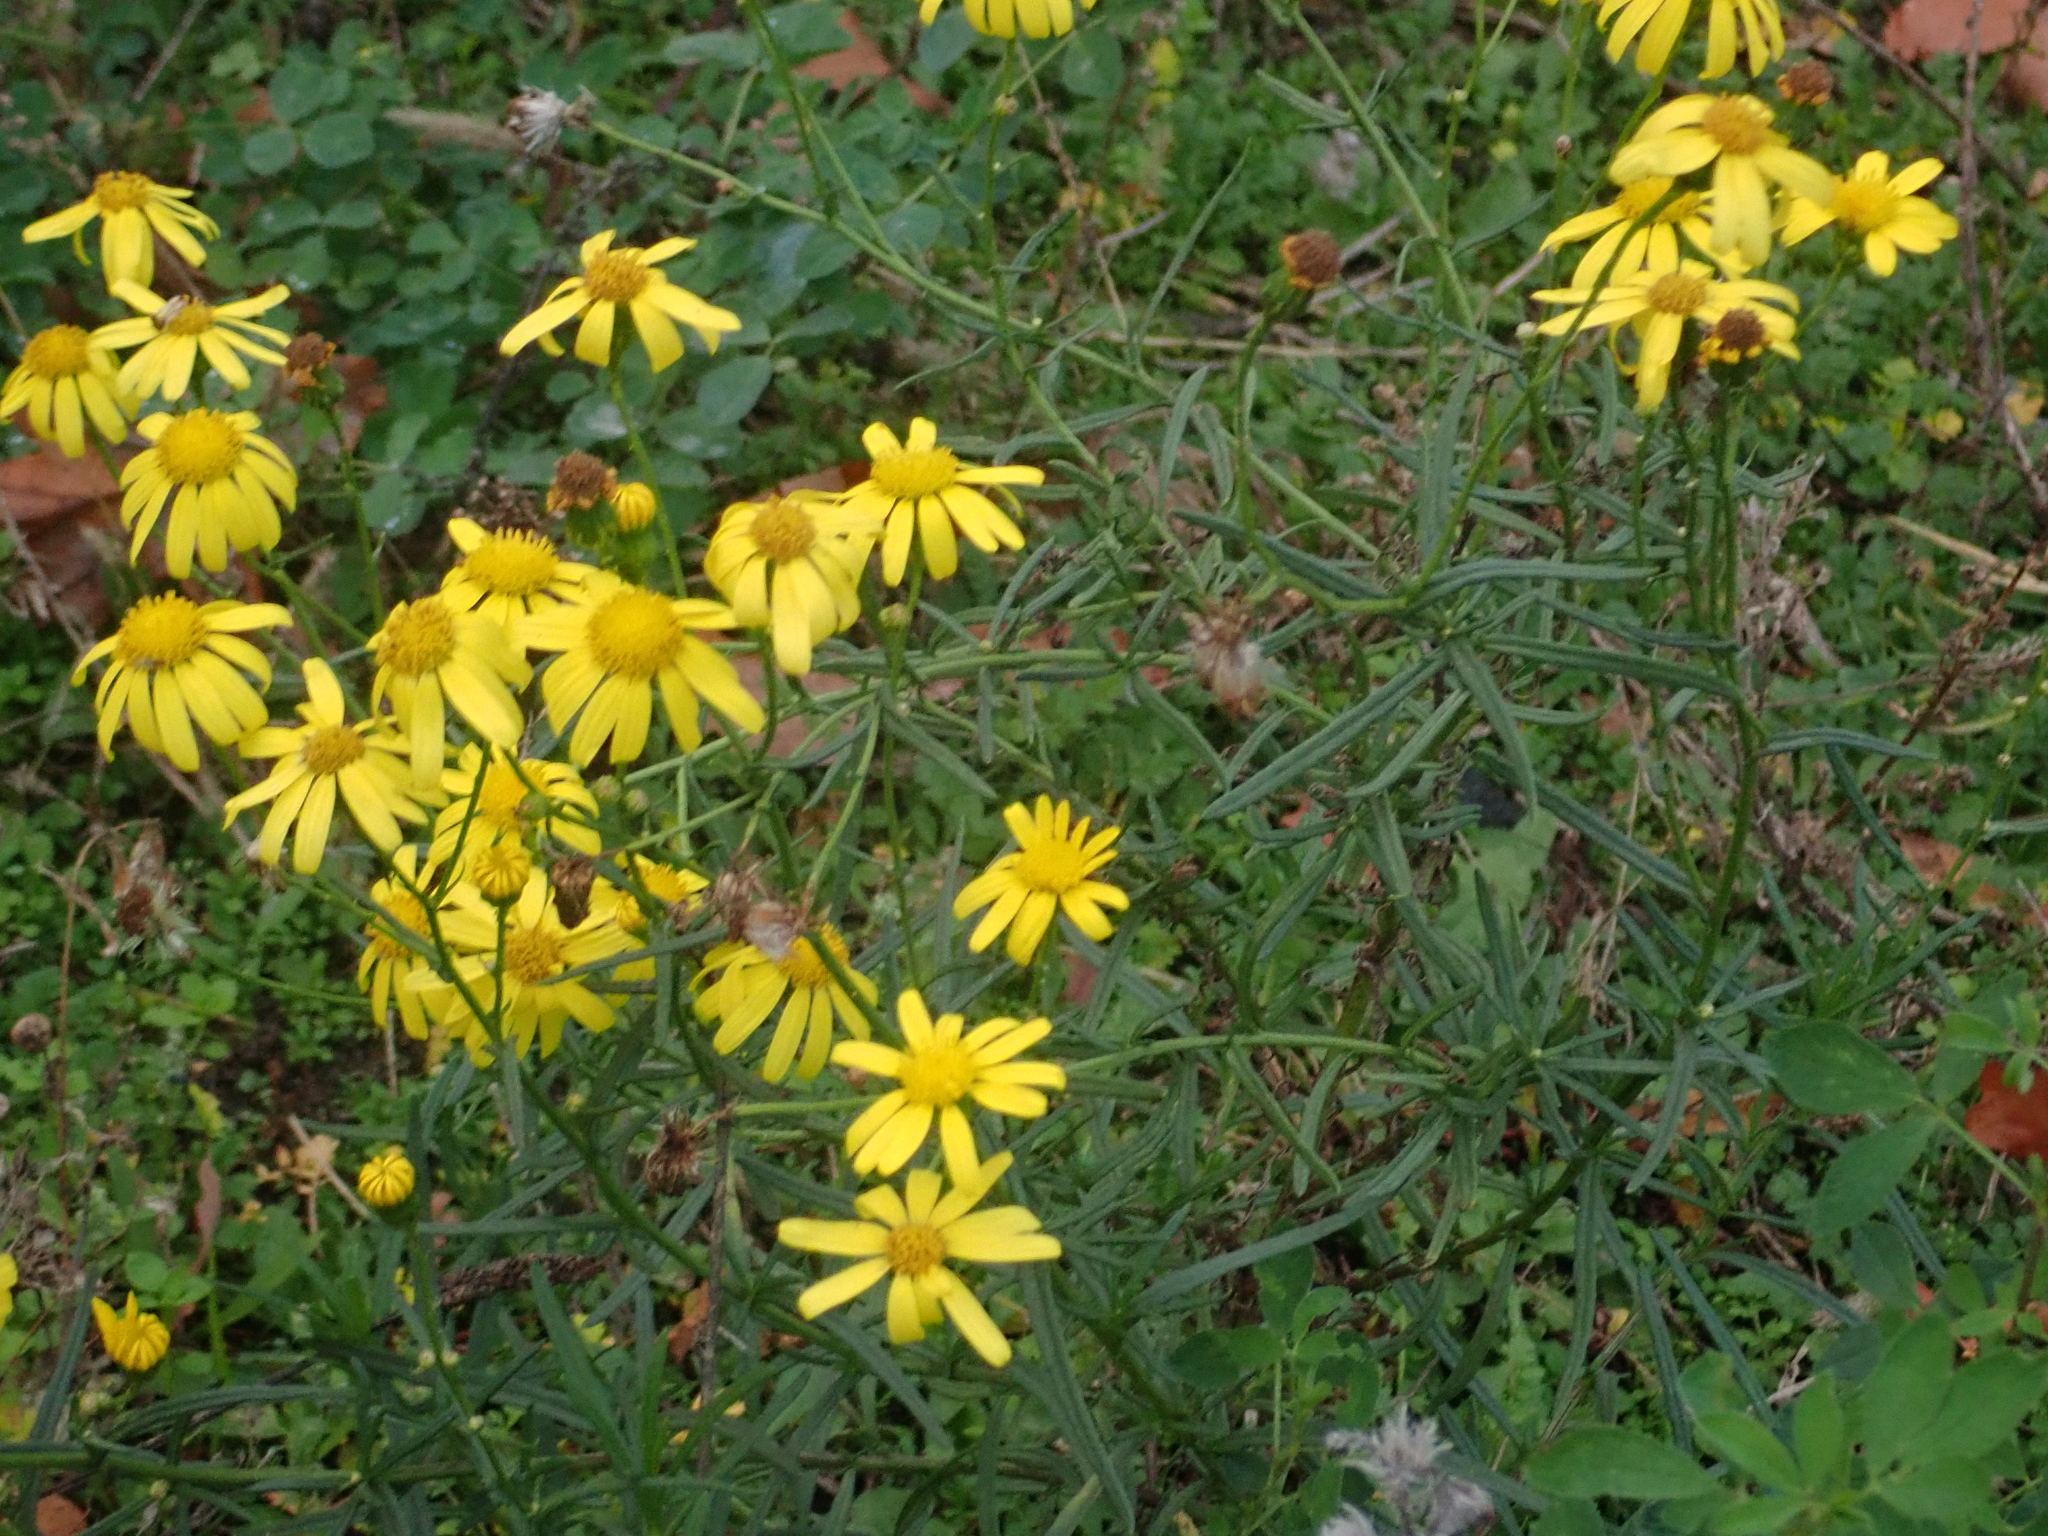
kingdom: Plantae
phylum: Tracheophyta
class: Magnoliopsida
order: Asterales
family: Asteraceae
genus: Senecio
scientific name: Senecio inaequidens
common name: Narrow-leaved ragwort
